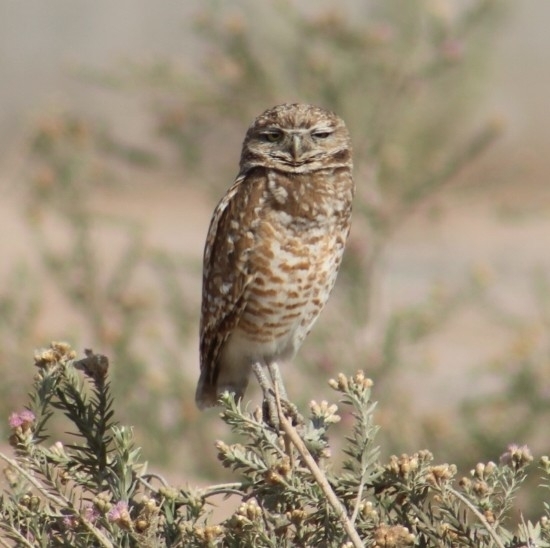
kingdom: Animalia
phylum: Chordata
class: Aves
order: Strigiformes
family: Strigidae
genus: Athene
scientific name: Athene cunicularia
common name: Burrowing owl
